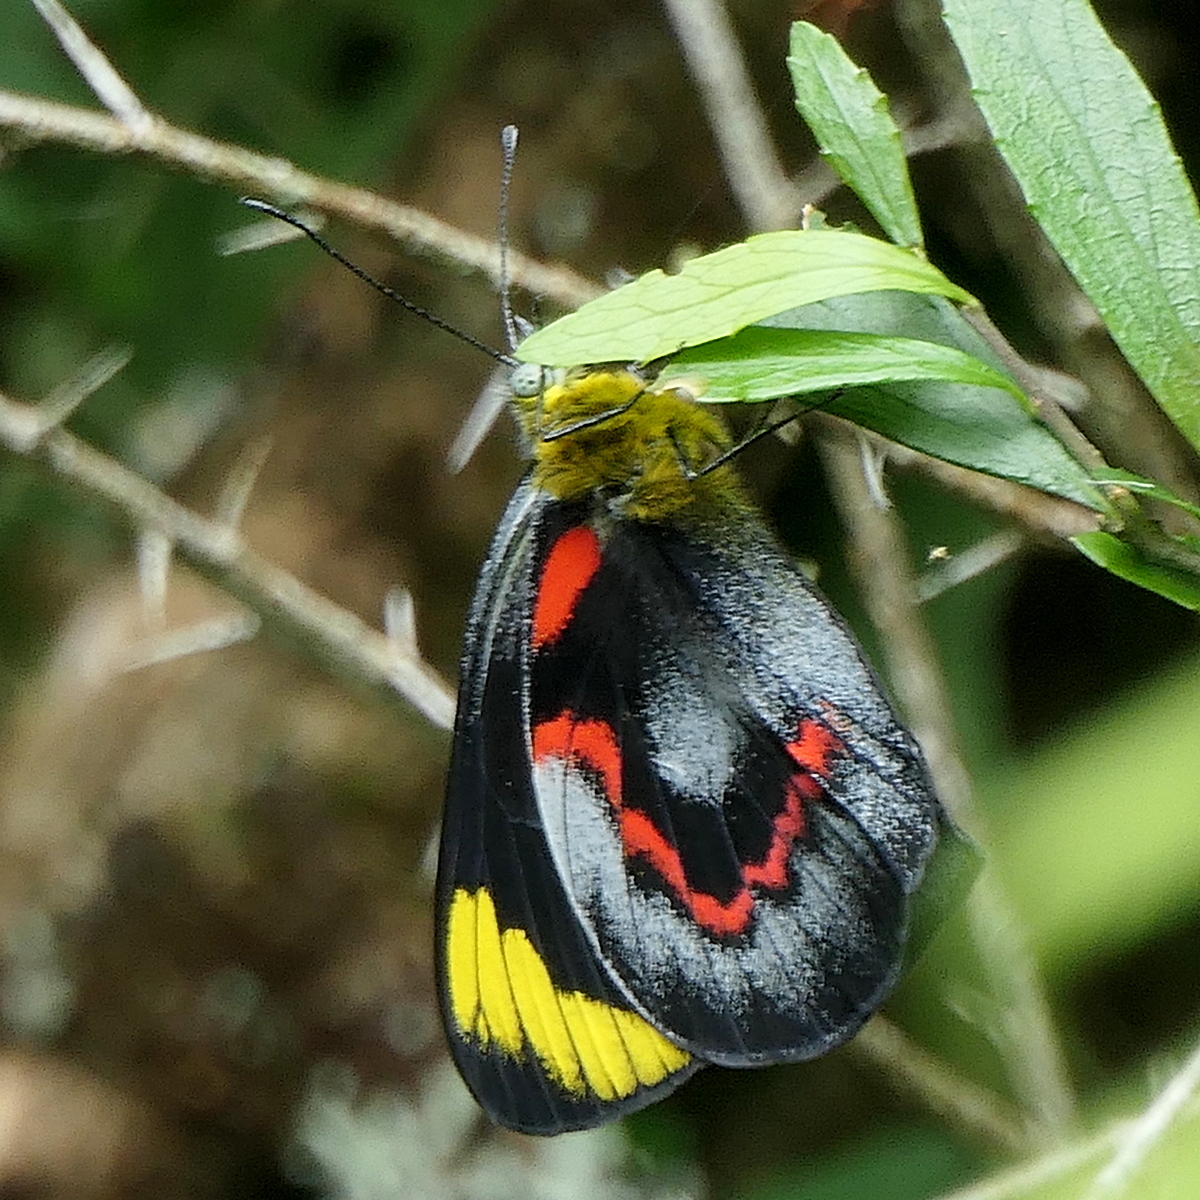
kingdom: Animalia
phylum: Arthropoda
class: Insecta
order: Lepidoptera
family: Pieridae
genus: Delias
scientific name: Delias nigrina
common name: Black jezebel
